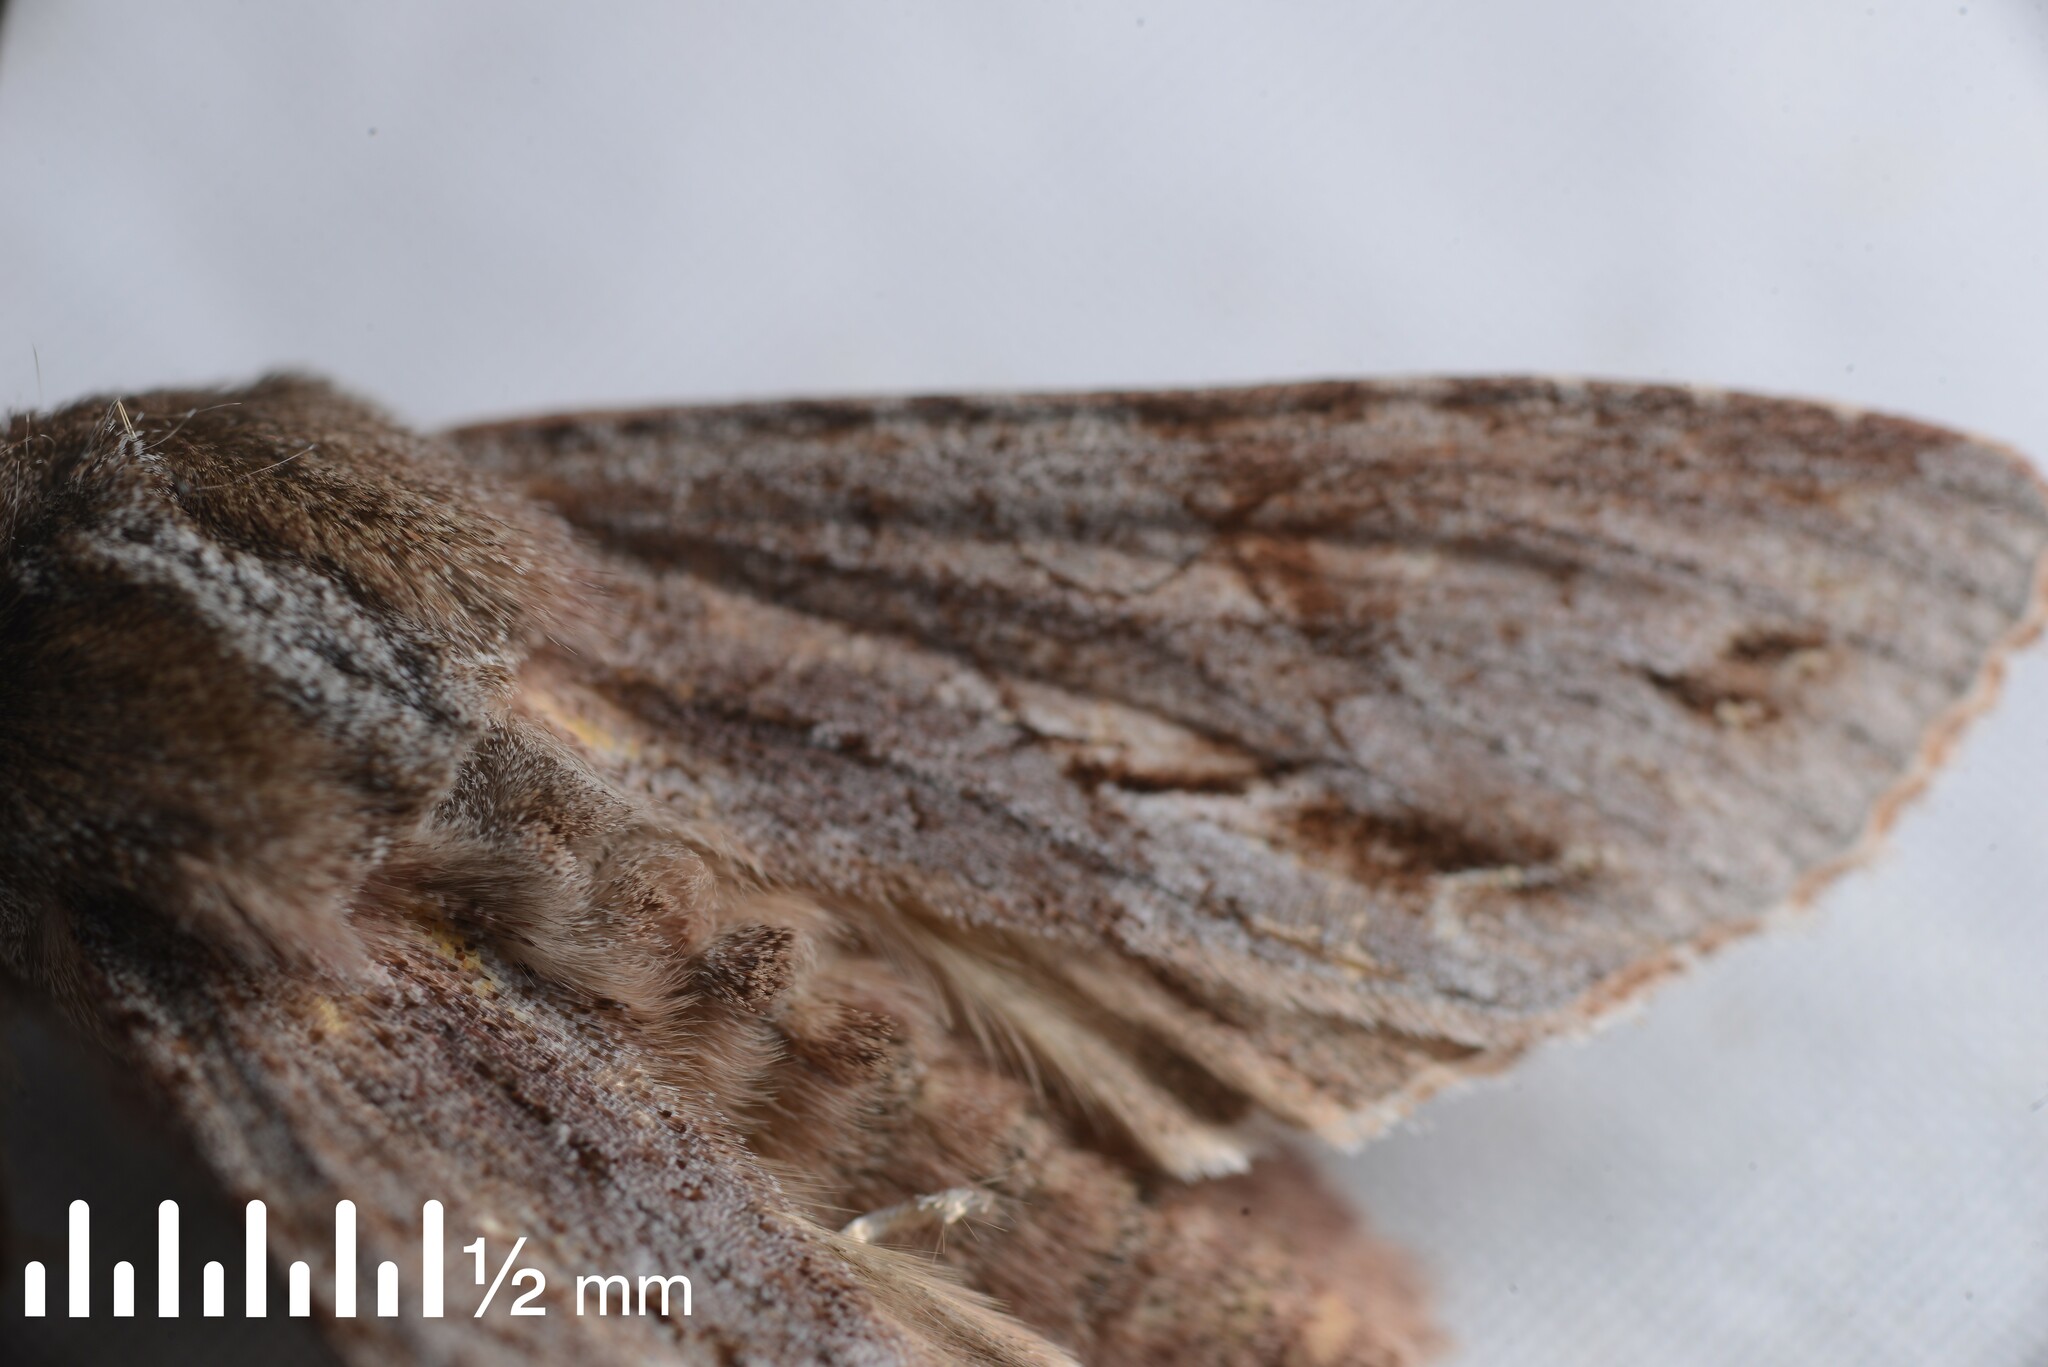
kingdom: Animalia
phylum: Arthropoda
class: Insecta
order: Lepidoptera
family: Noctuidae
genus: Ichneutica
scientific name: Ichneutica
